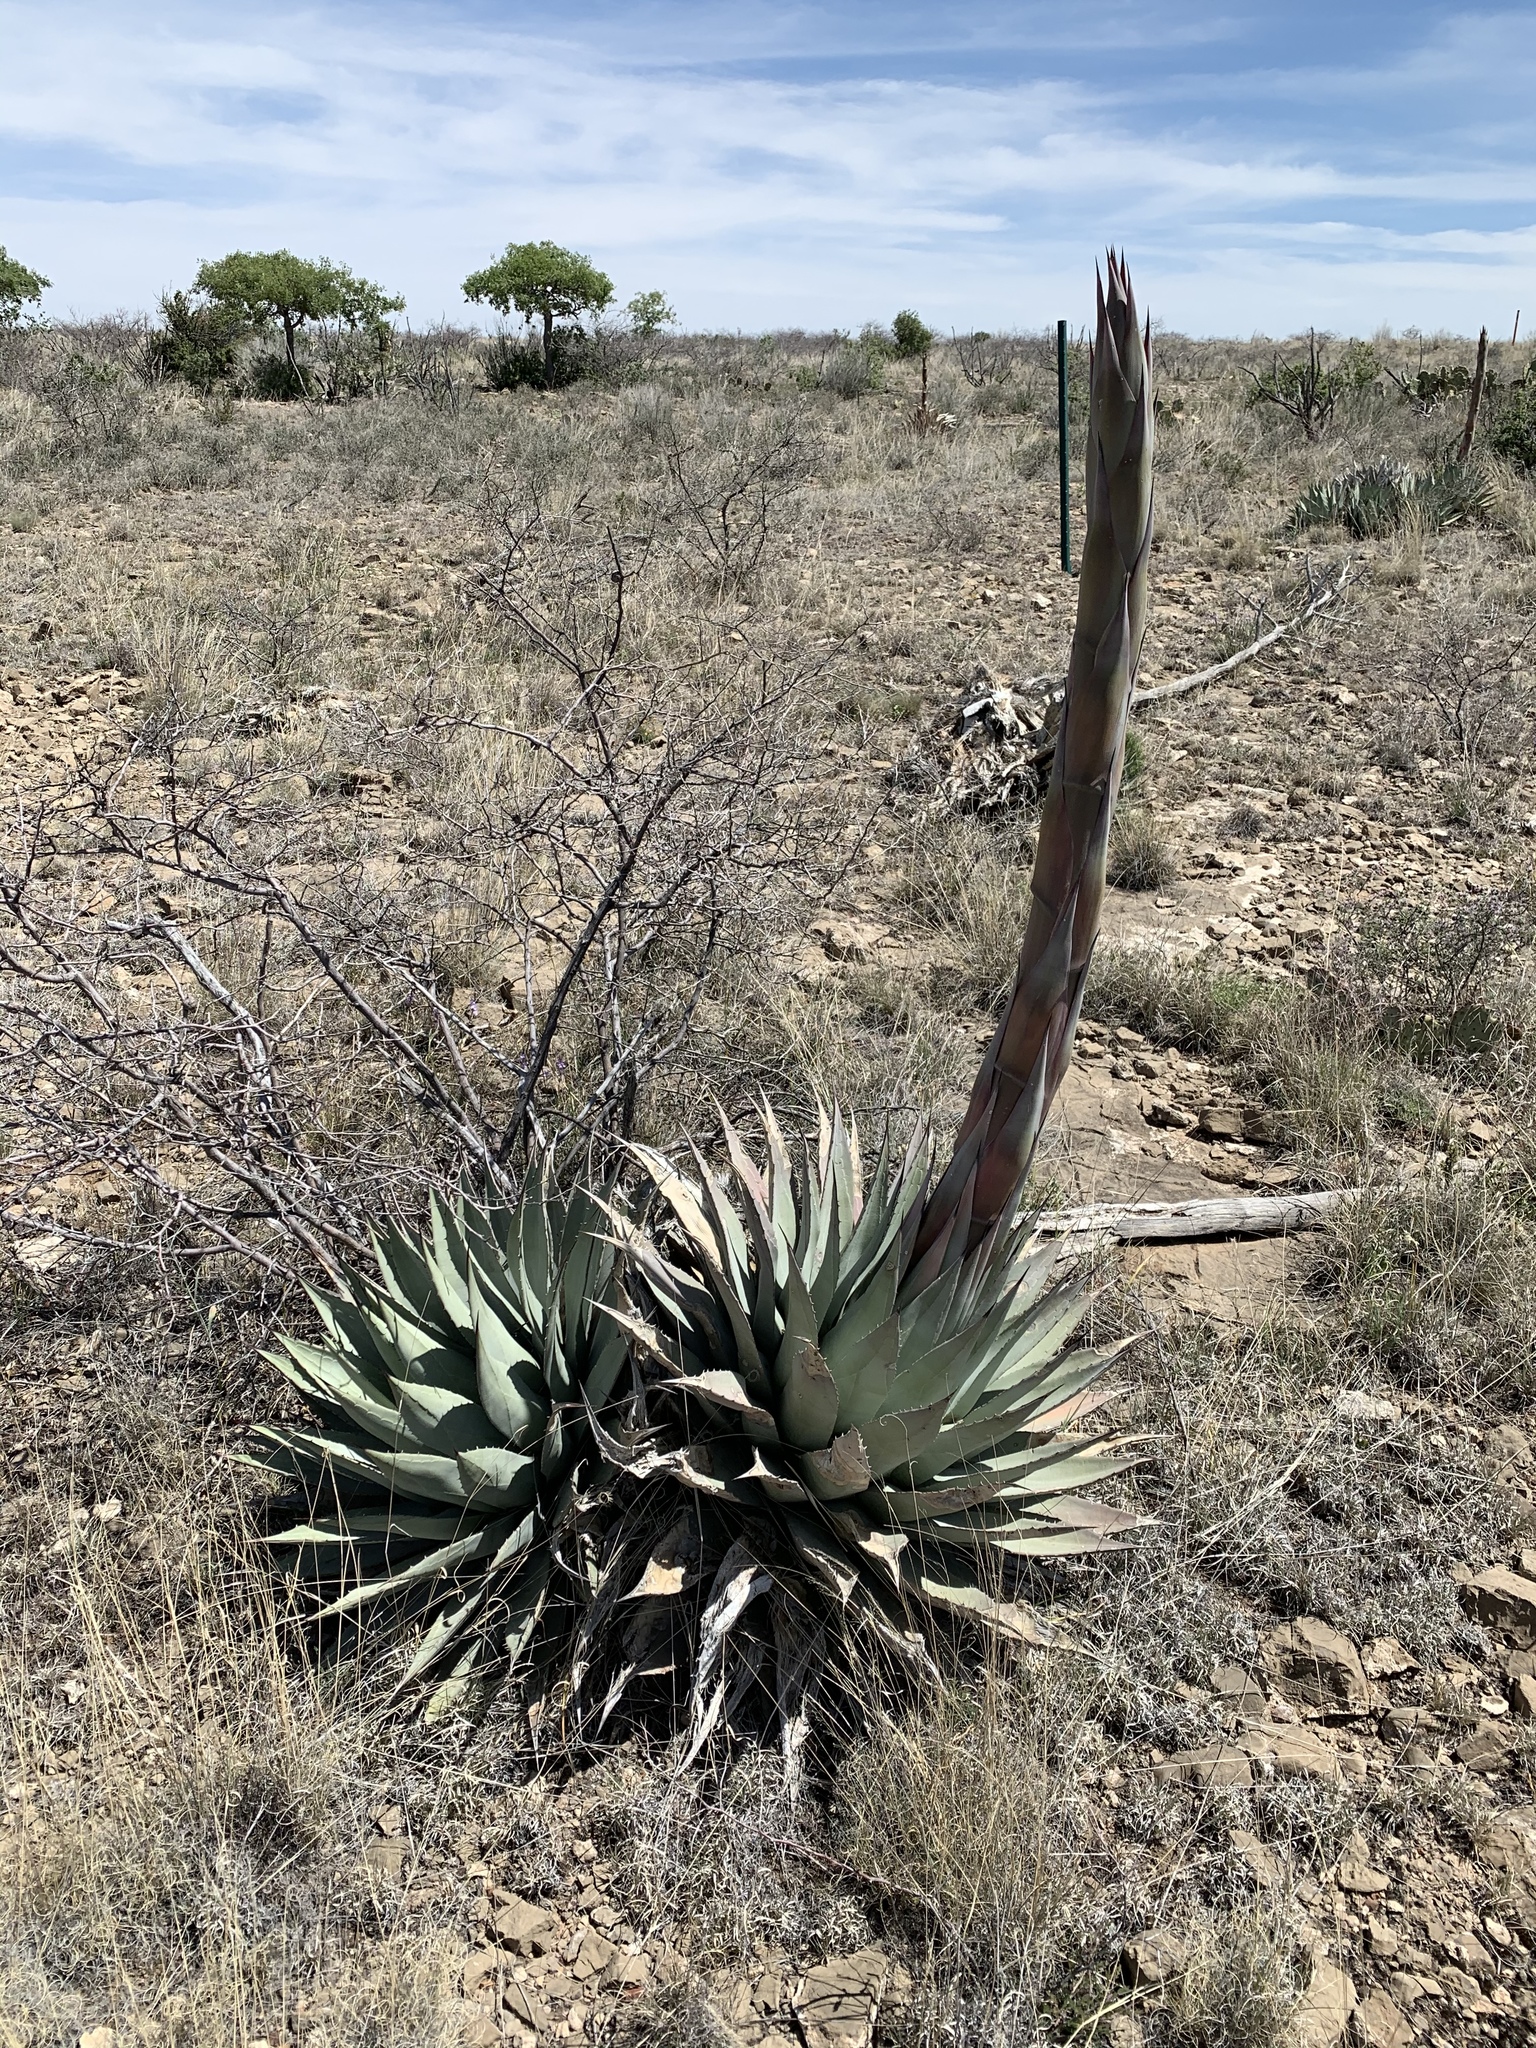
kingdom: Plantae
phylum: Tracheophyta
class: Liliopsida
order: Asparagales
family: Asparagaceae
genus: Agave
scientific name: Agave parryi
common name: Parry's agave
